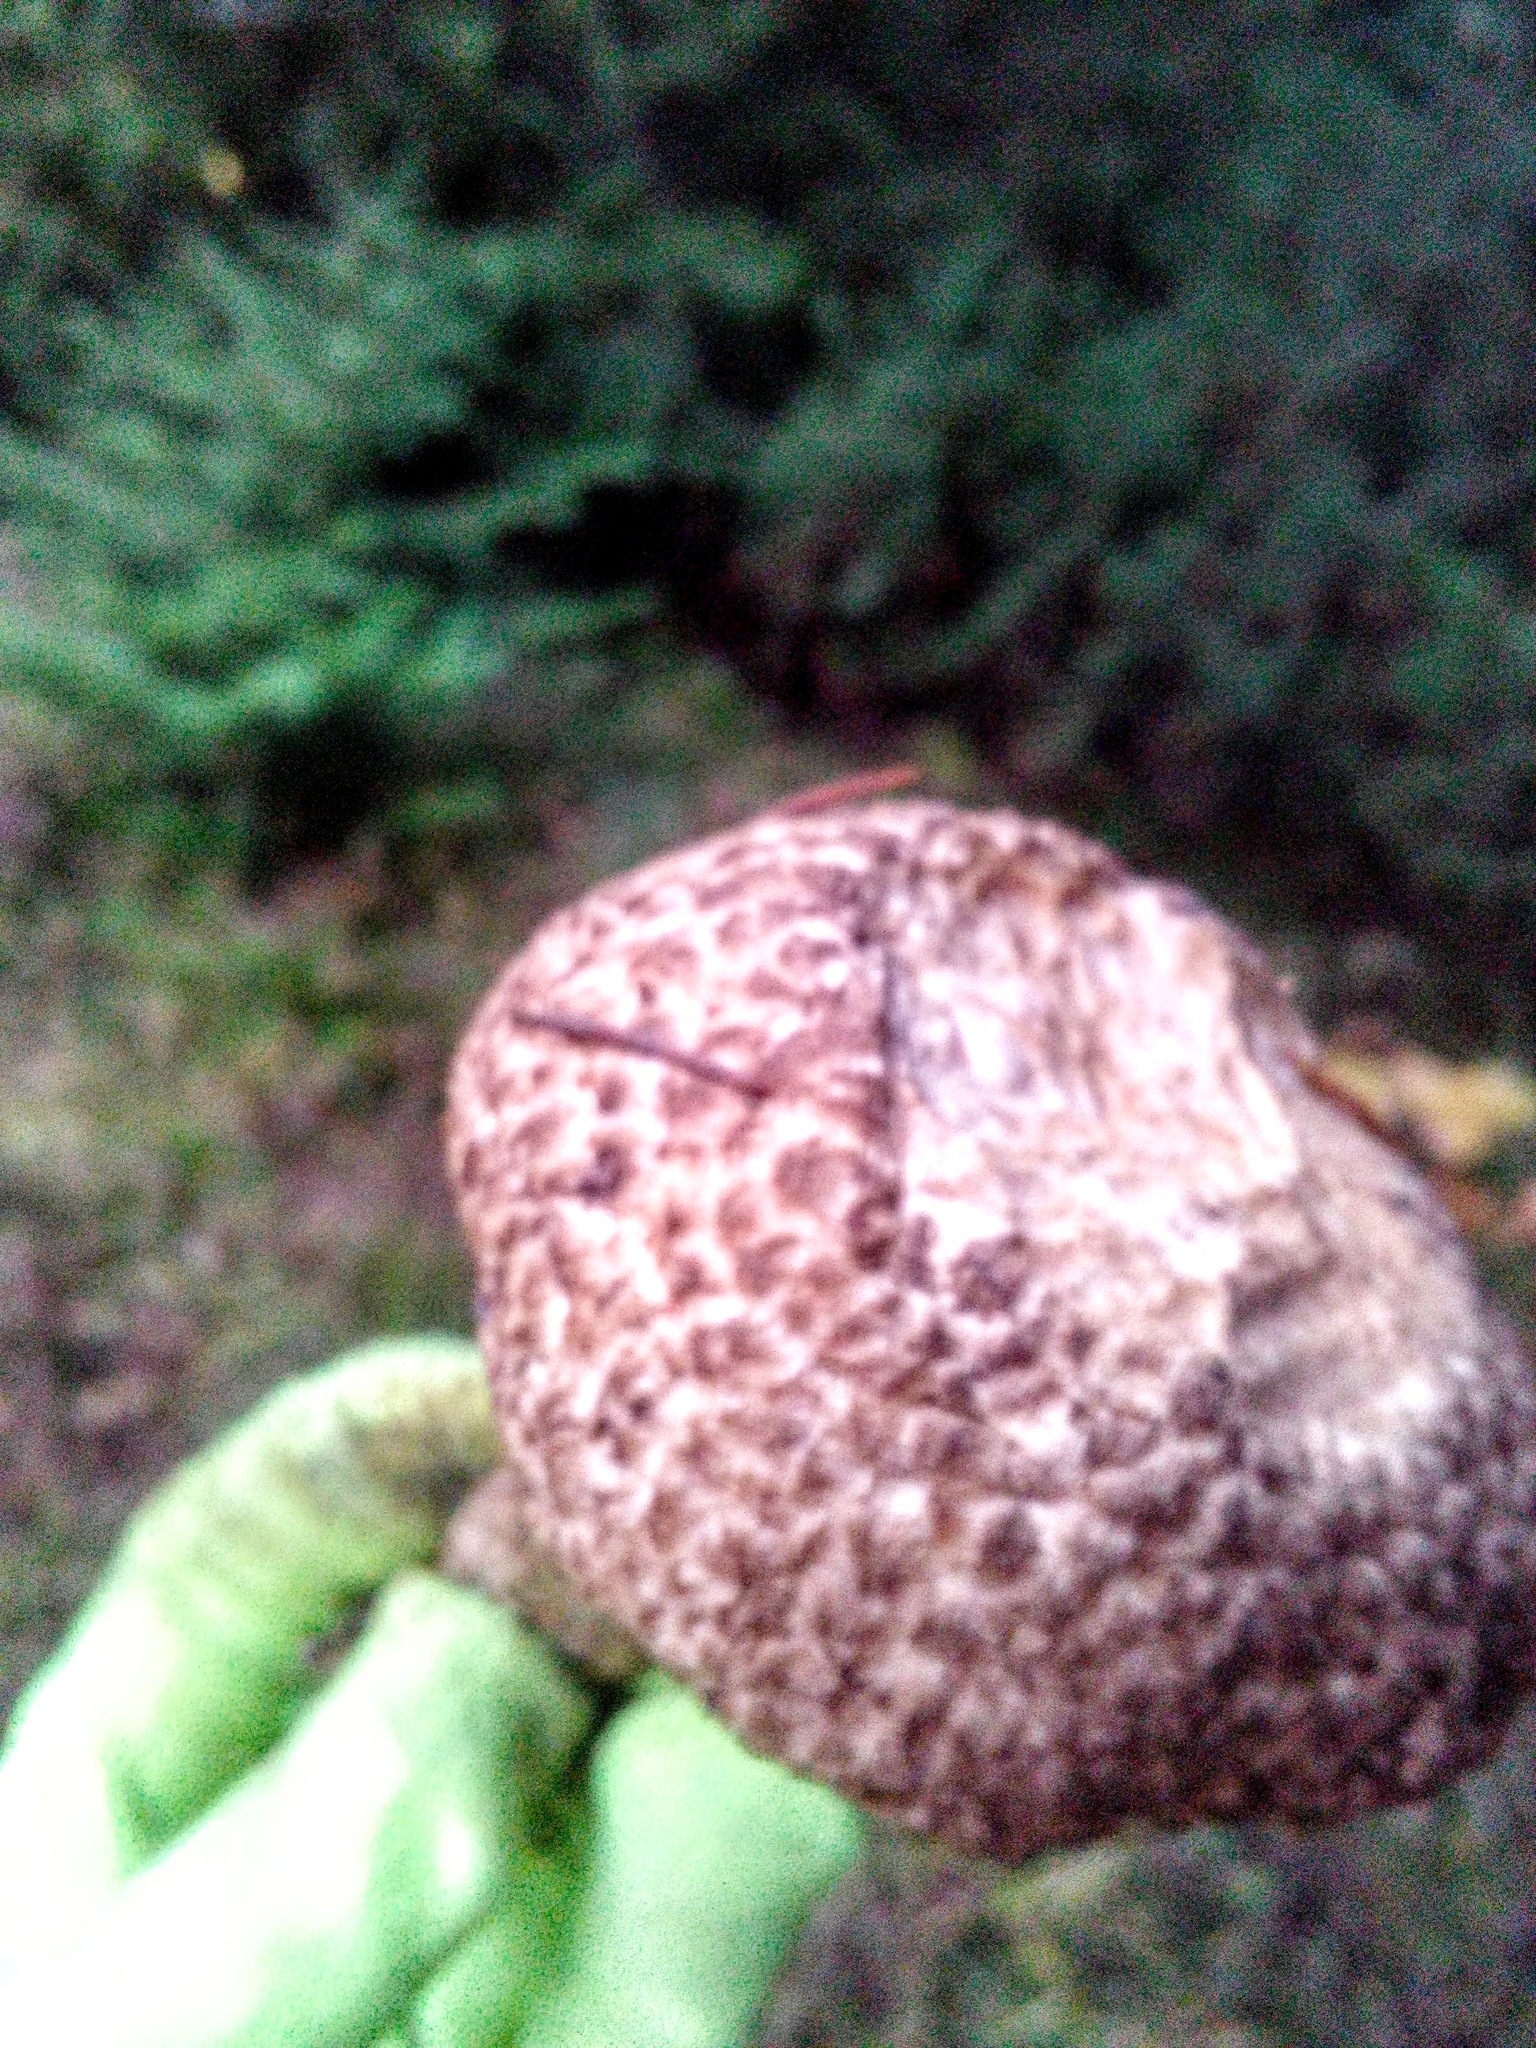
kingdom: Fungi
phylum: Basidiomycota
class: Agaricomycetes
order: Boletales
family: Suillaceae
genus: Suillus
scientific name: Suillus spraguei
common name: Painted suillus
